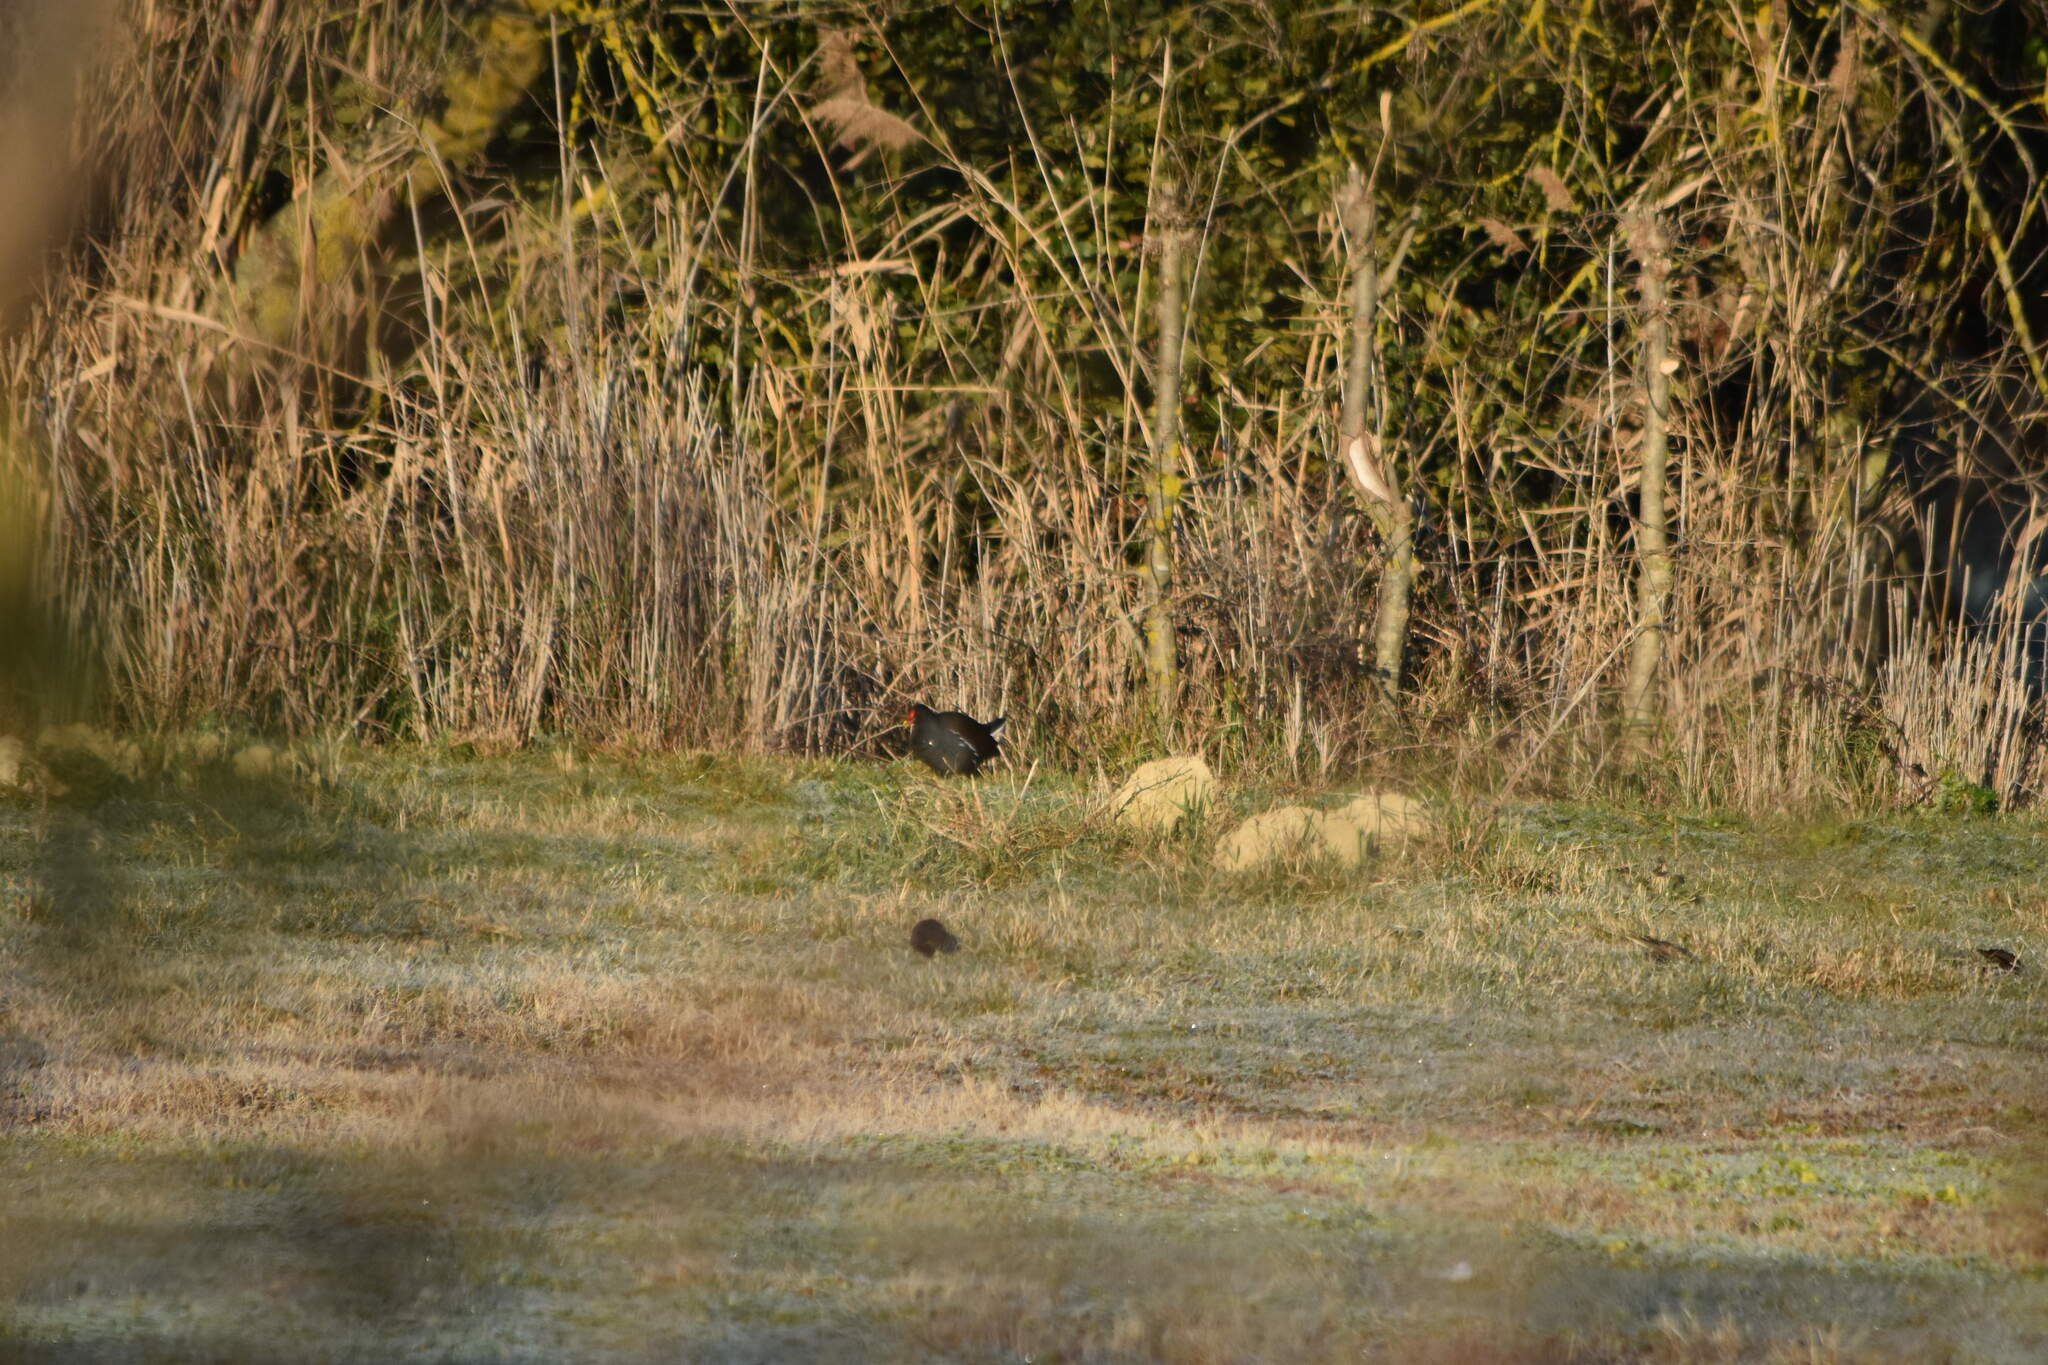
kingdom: Animalia
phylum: Chordata
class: Aves
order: Gruiformes
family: Rallidae
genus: Gallinula
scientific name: Gallinula chloropus
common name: Common moorhen
